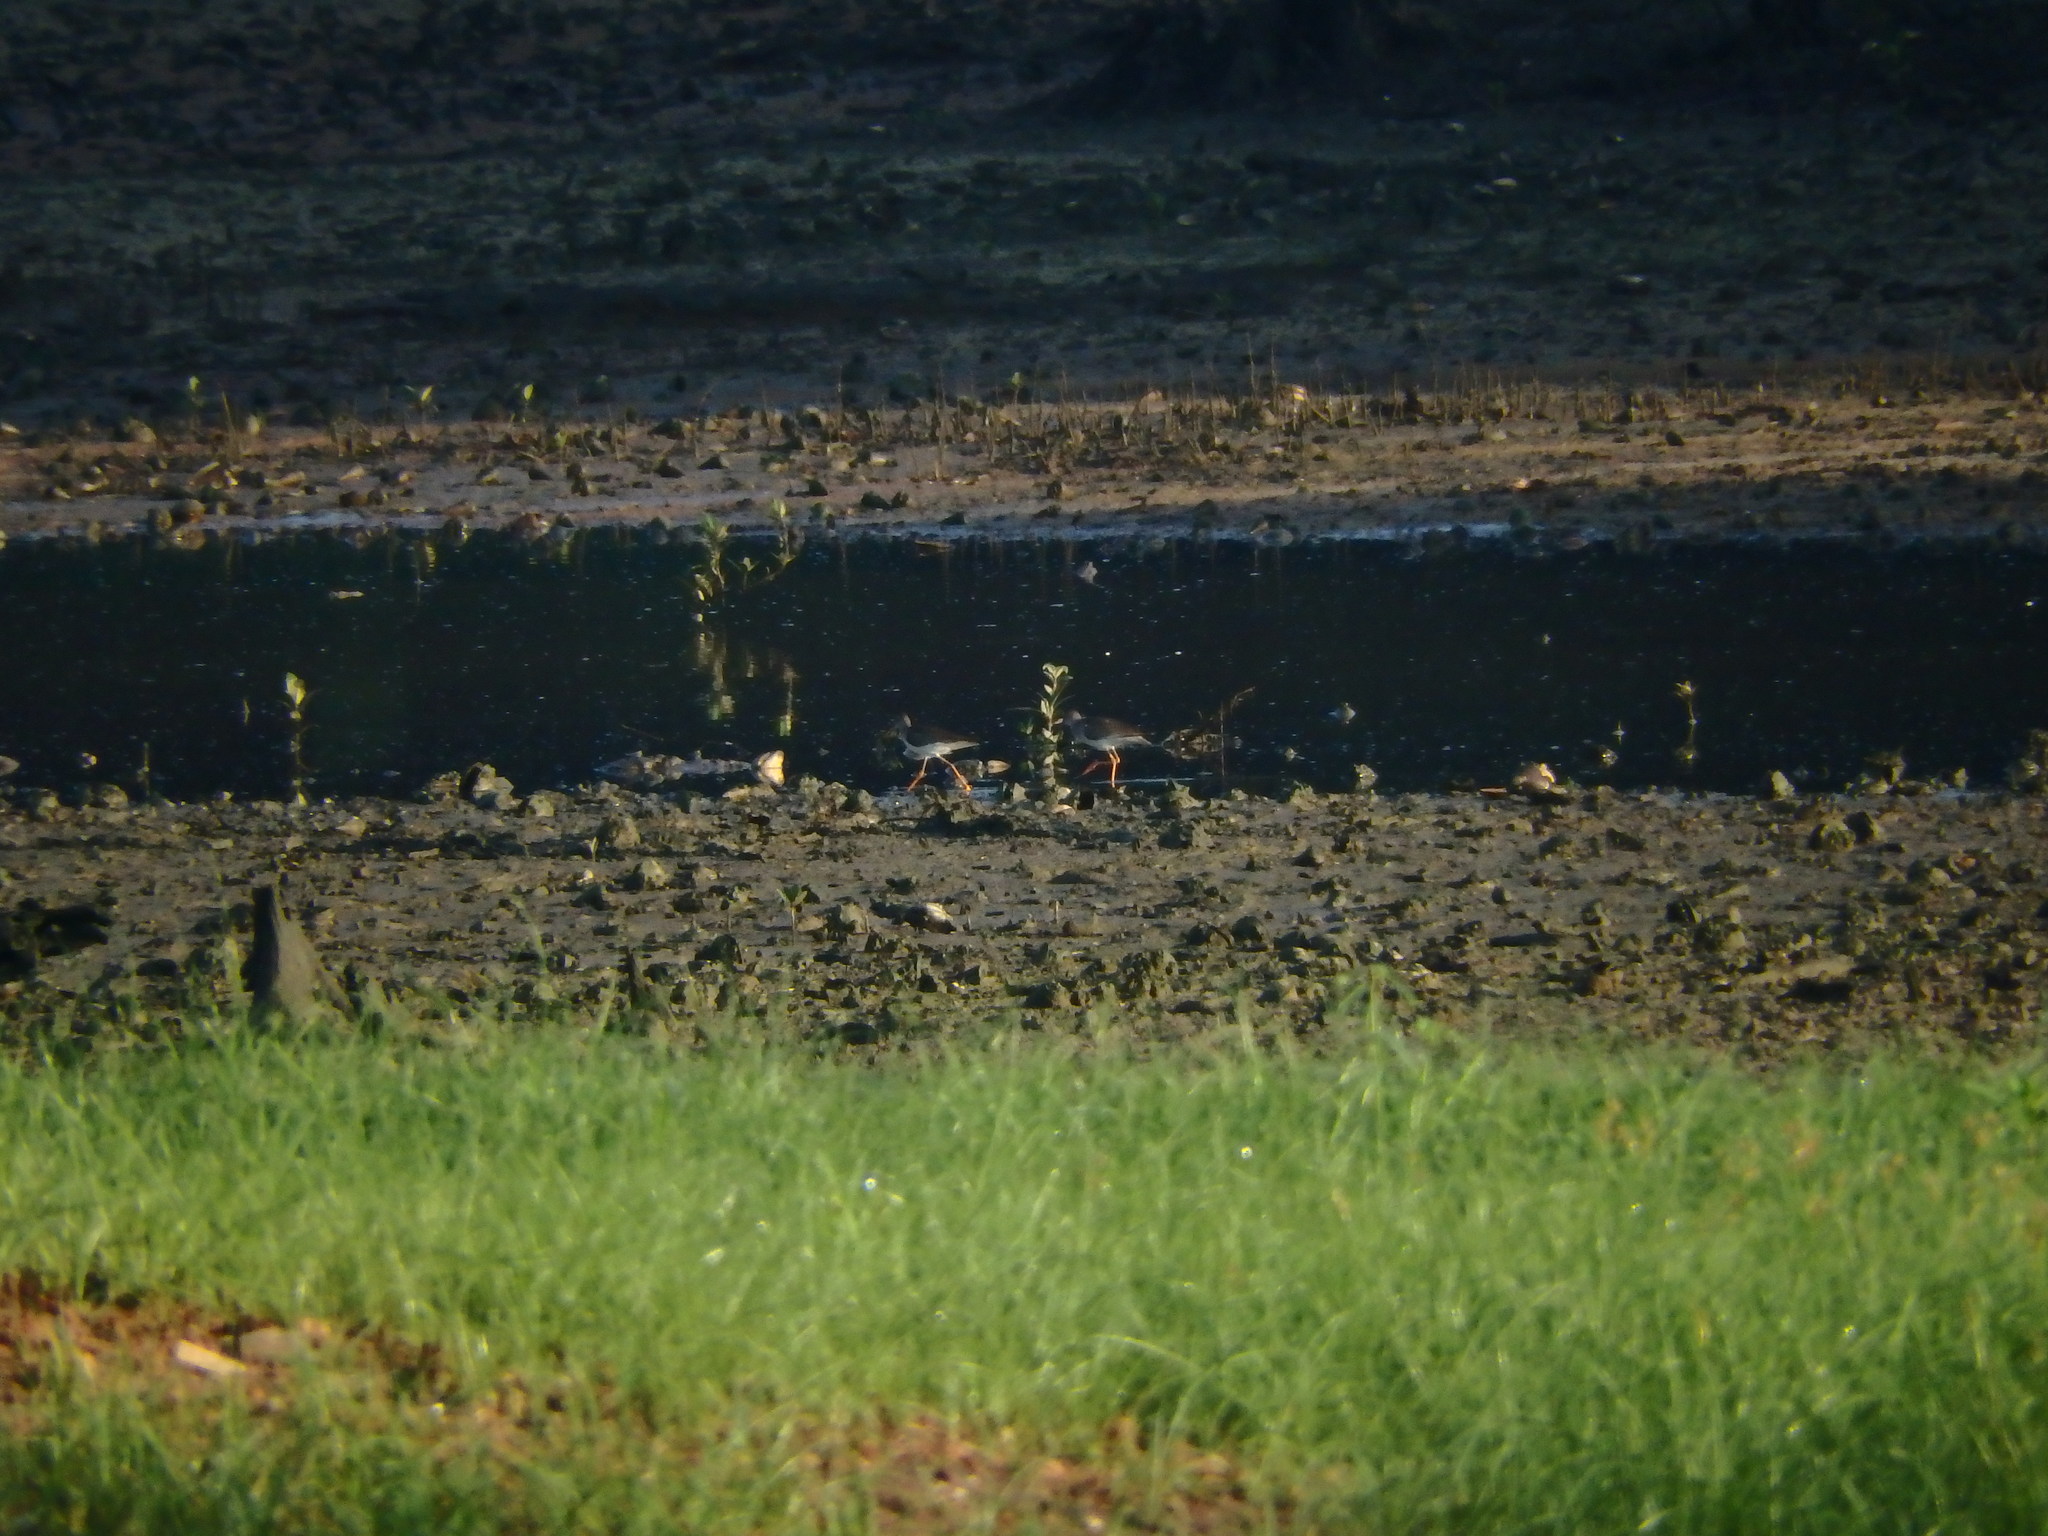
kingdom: Animalia
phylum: Chordata
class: Aves
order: Charadriiformes
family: Scolopacidae
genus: Tringa
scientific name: Tringa totanus
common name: Common redshank
